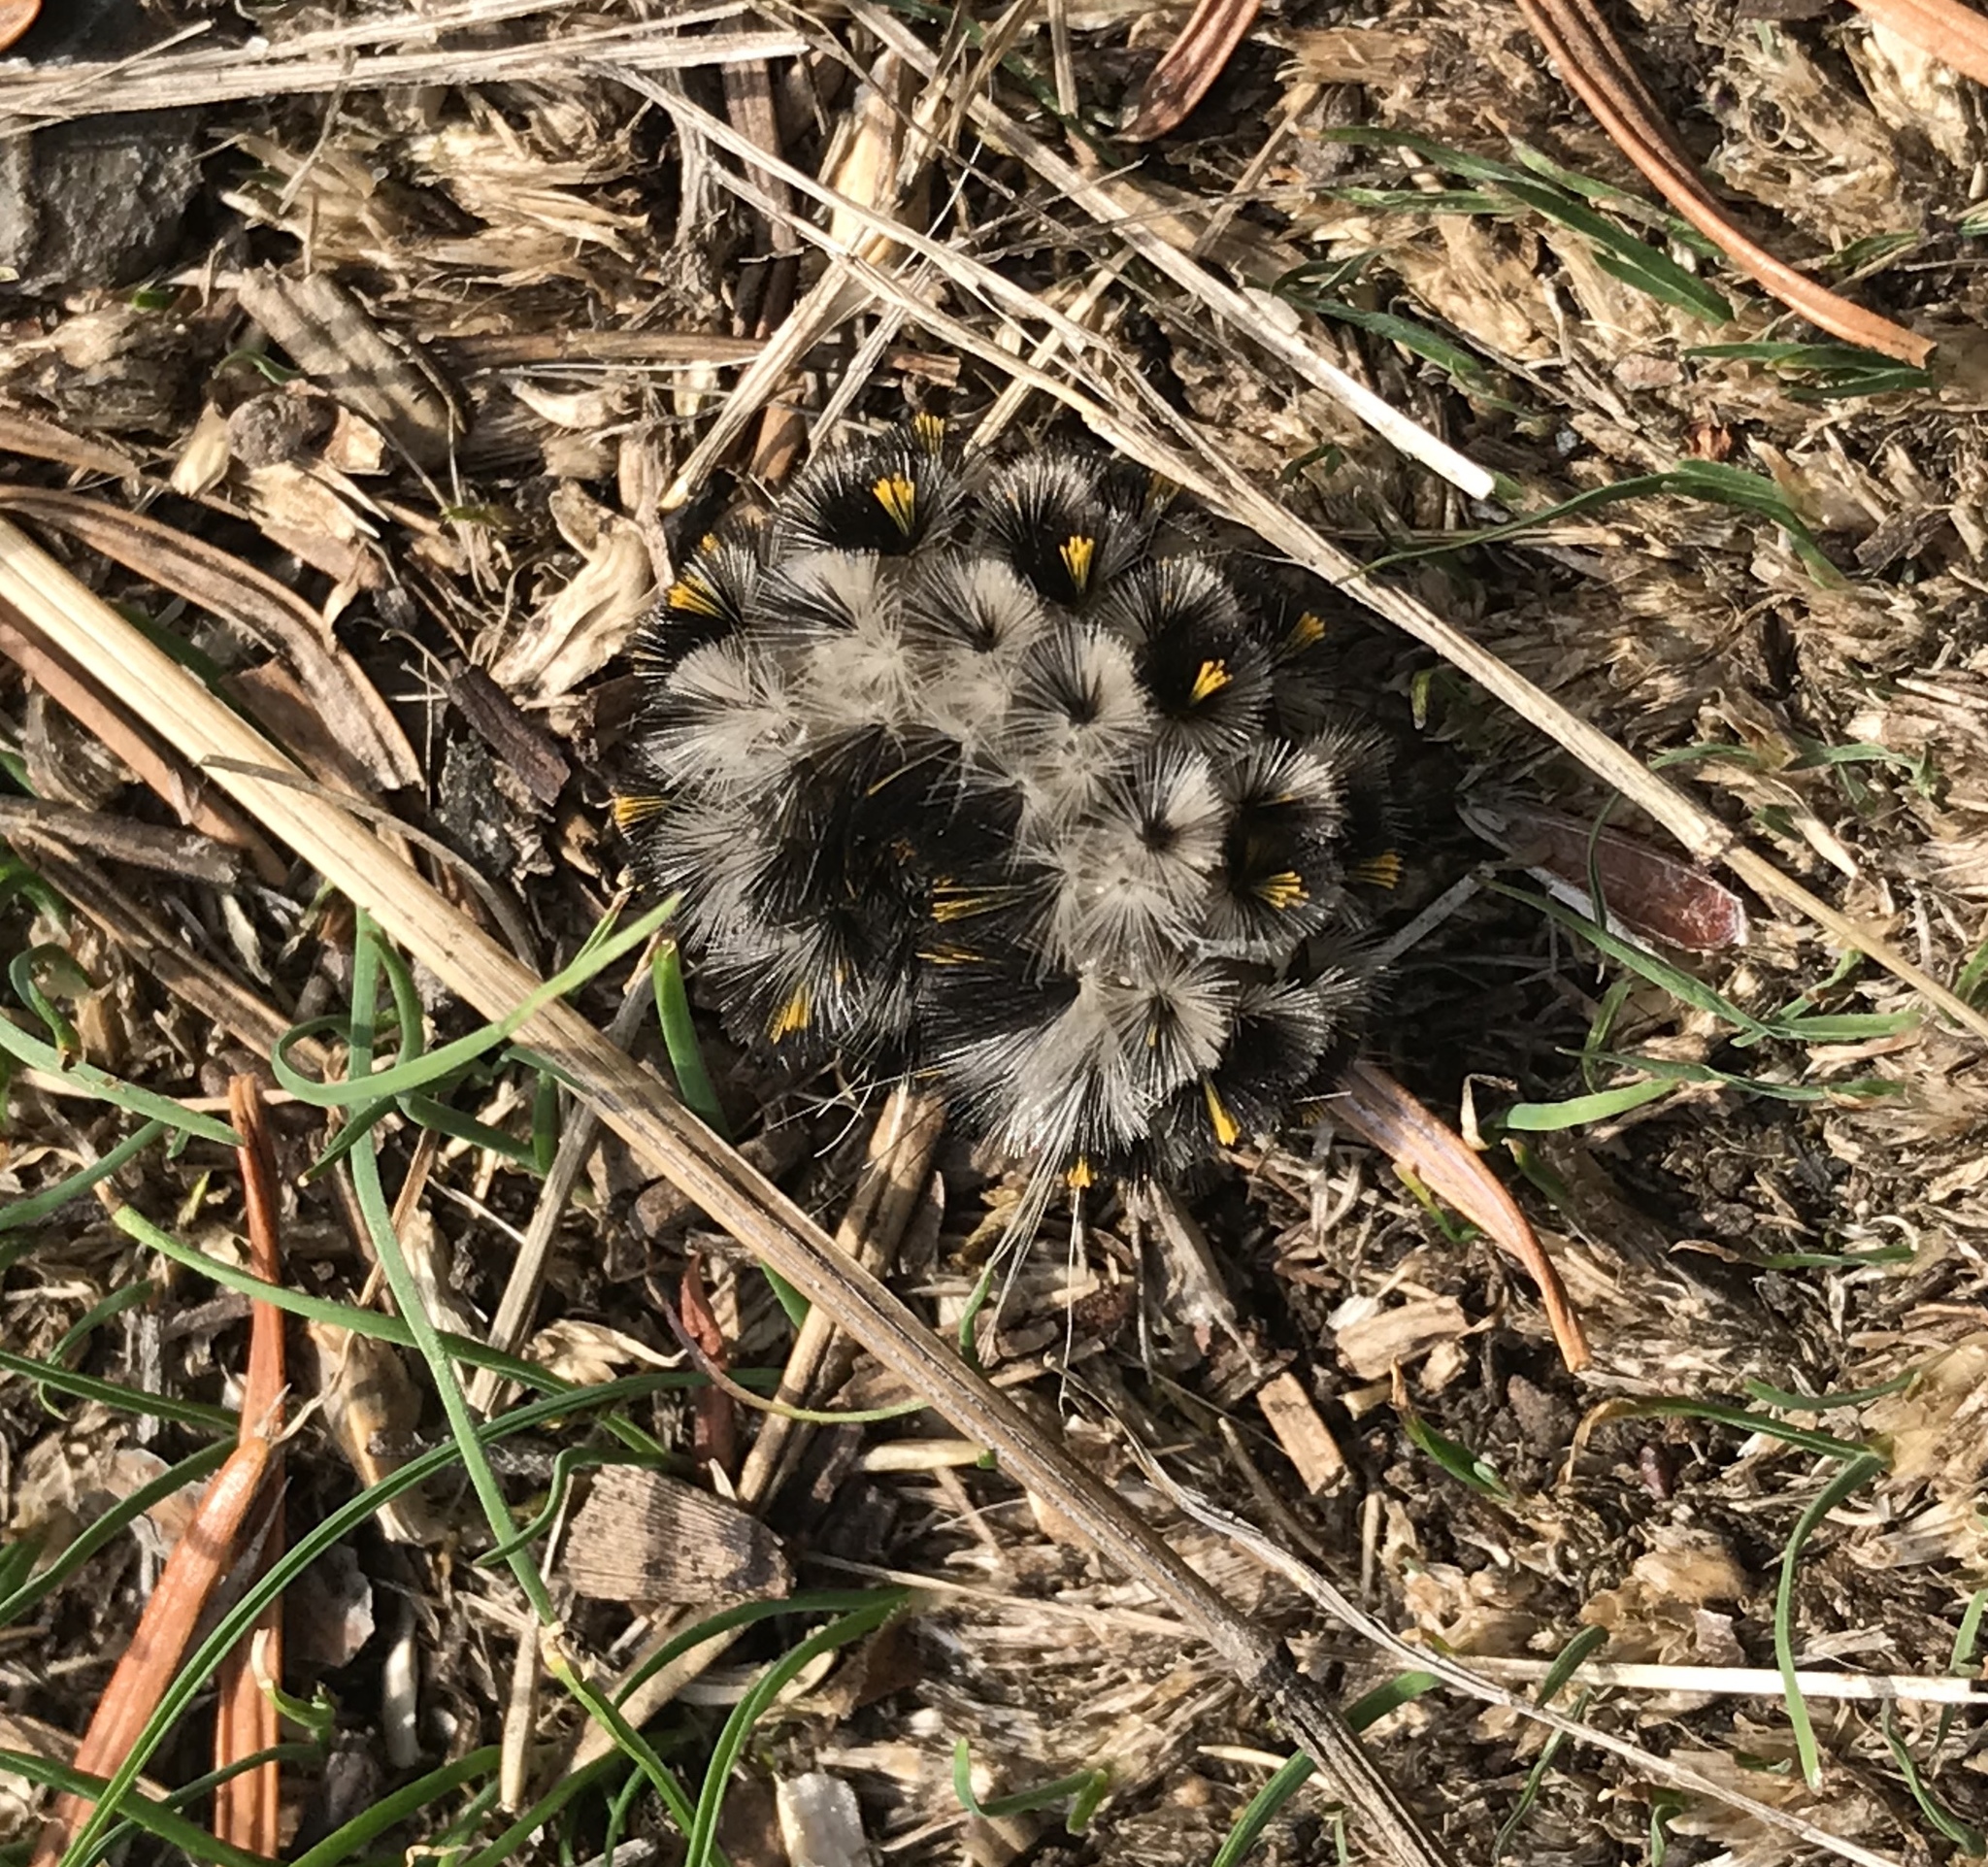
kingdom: Animalia
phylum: Arthropoda
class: Insecta
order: Lepidoptera
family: Erebidae
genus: Lophocampa
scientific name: Lophocampa roseata
